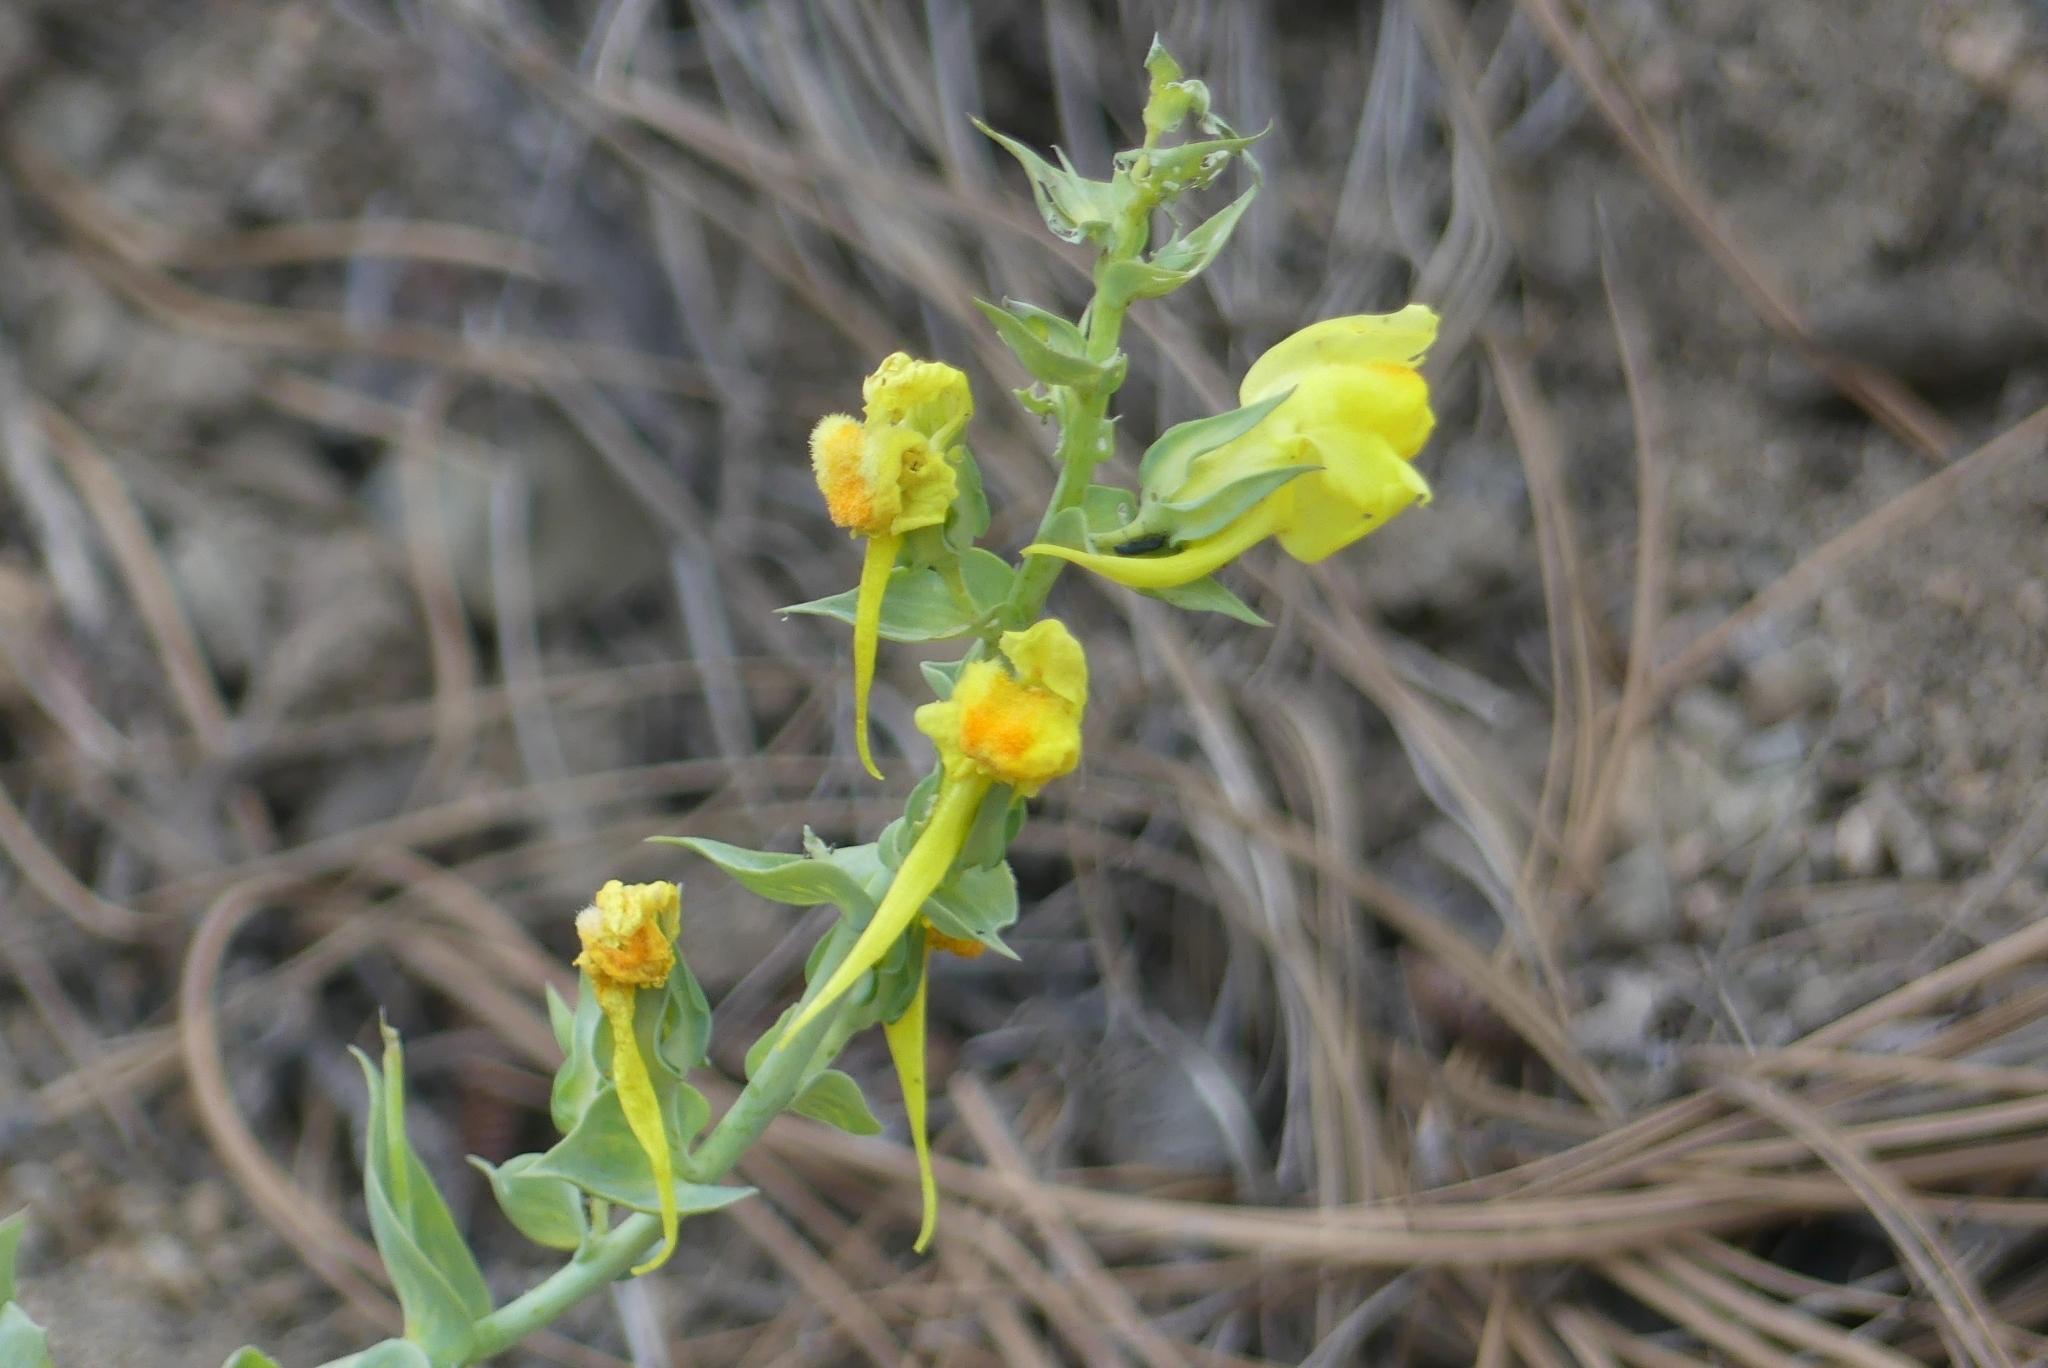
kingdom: Plantae
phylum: Tracheophyta
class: Magnoliopsida
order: Lamiales
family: Plantaginaceae
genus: Linaria
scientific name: Linaria dalmatica
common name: Dalmatian toadflax
